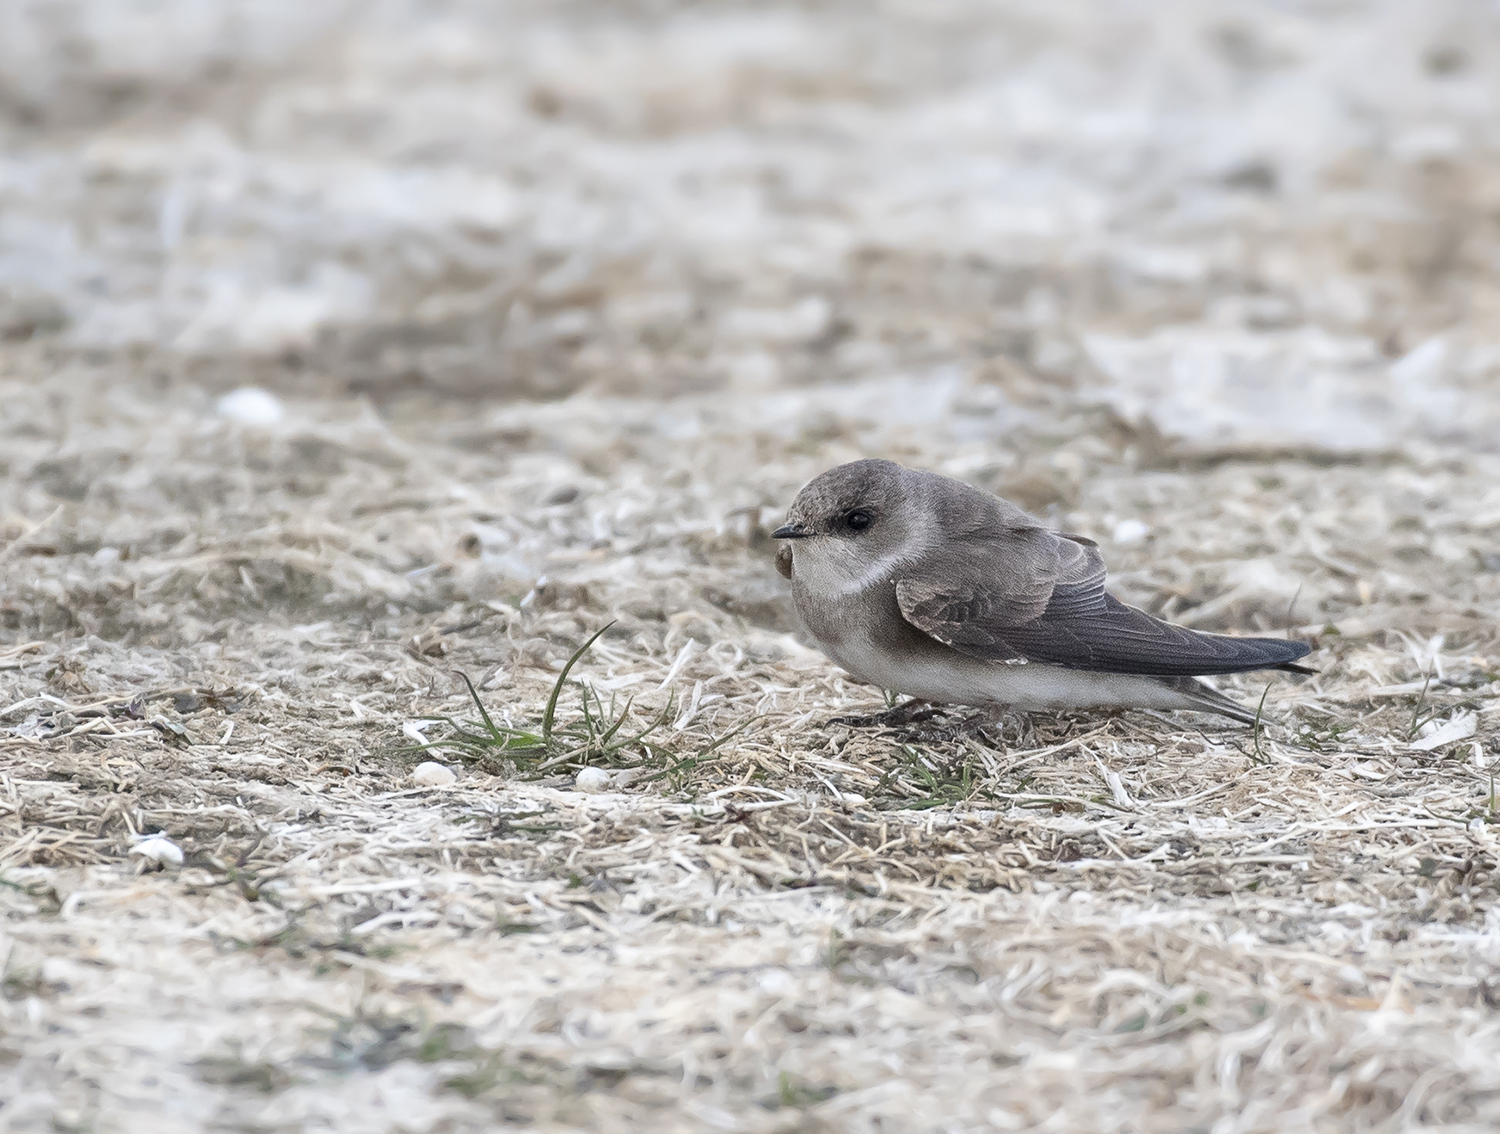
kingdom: Animalia
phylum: Chordata
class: Aves
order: Passeriformes
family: Hirundinidae
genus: Riparia
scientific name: Riparia diluta
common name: Pale martin
